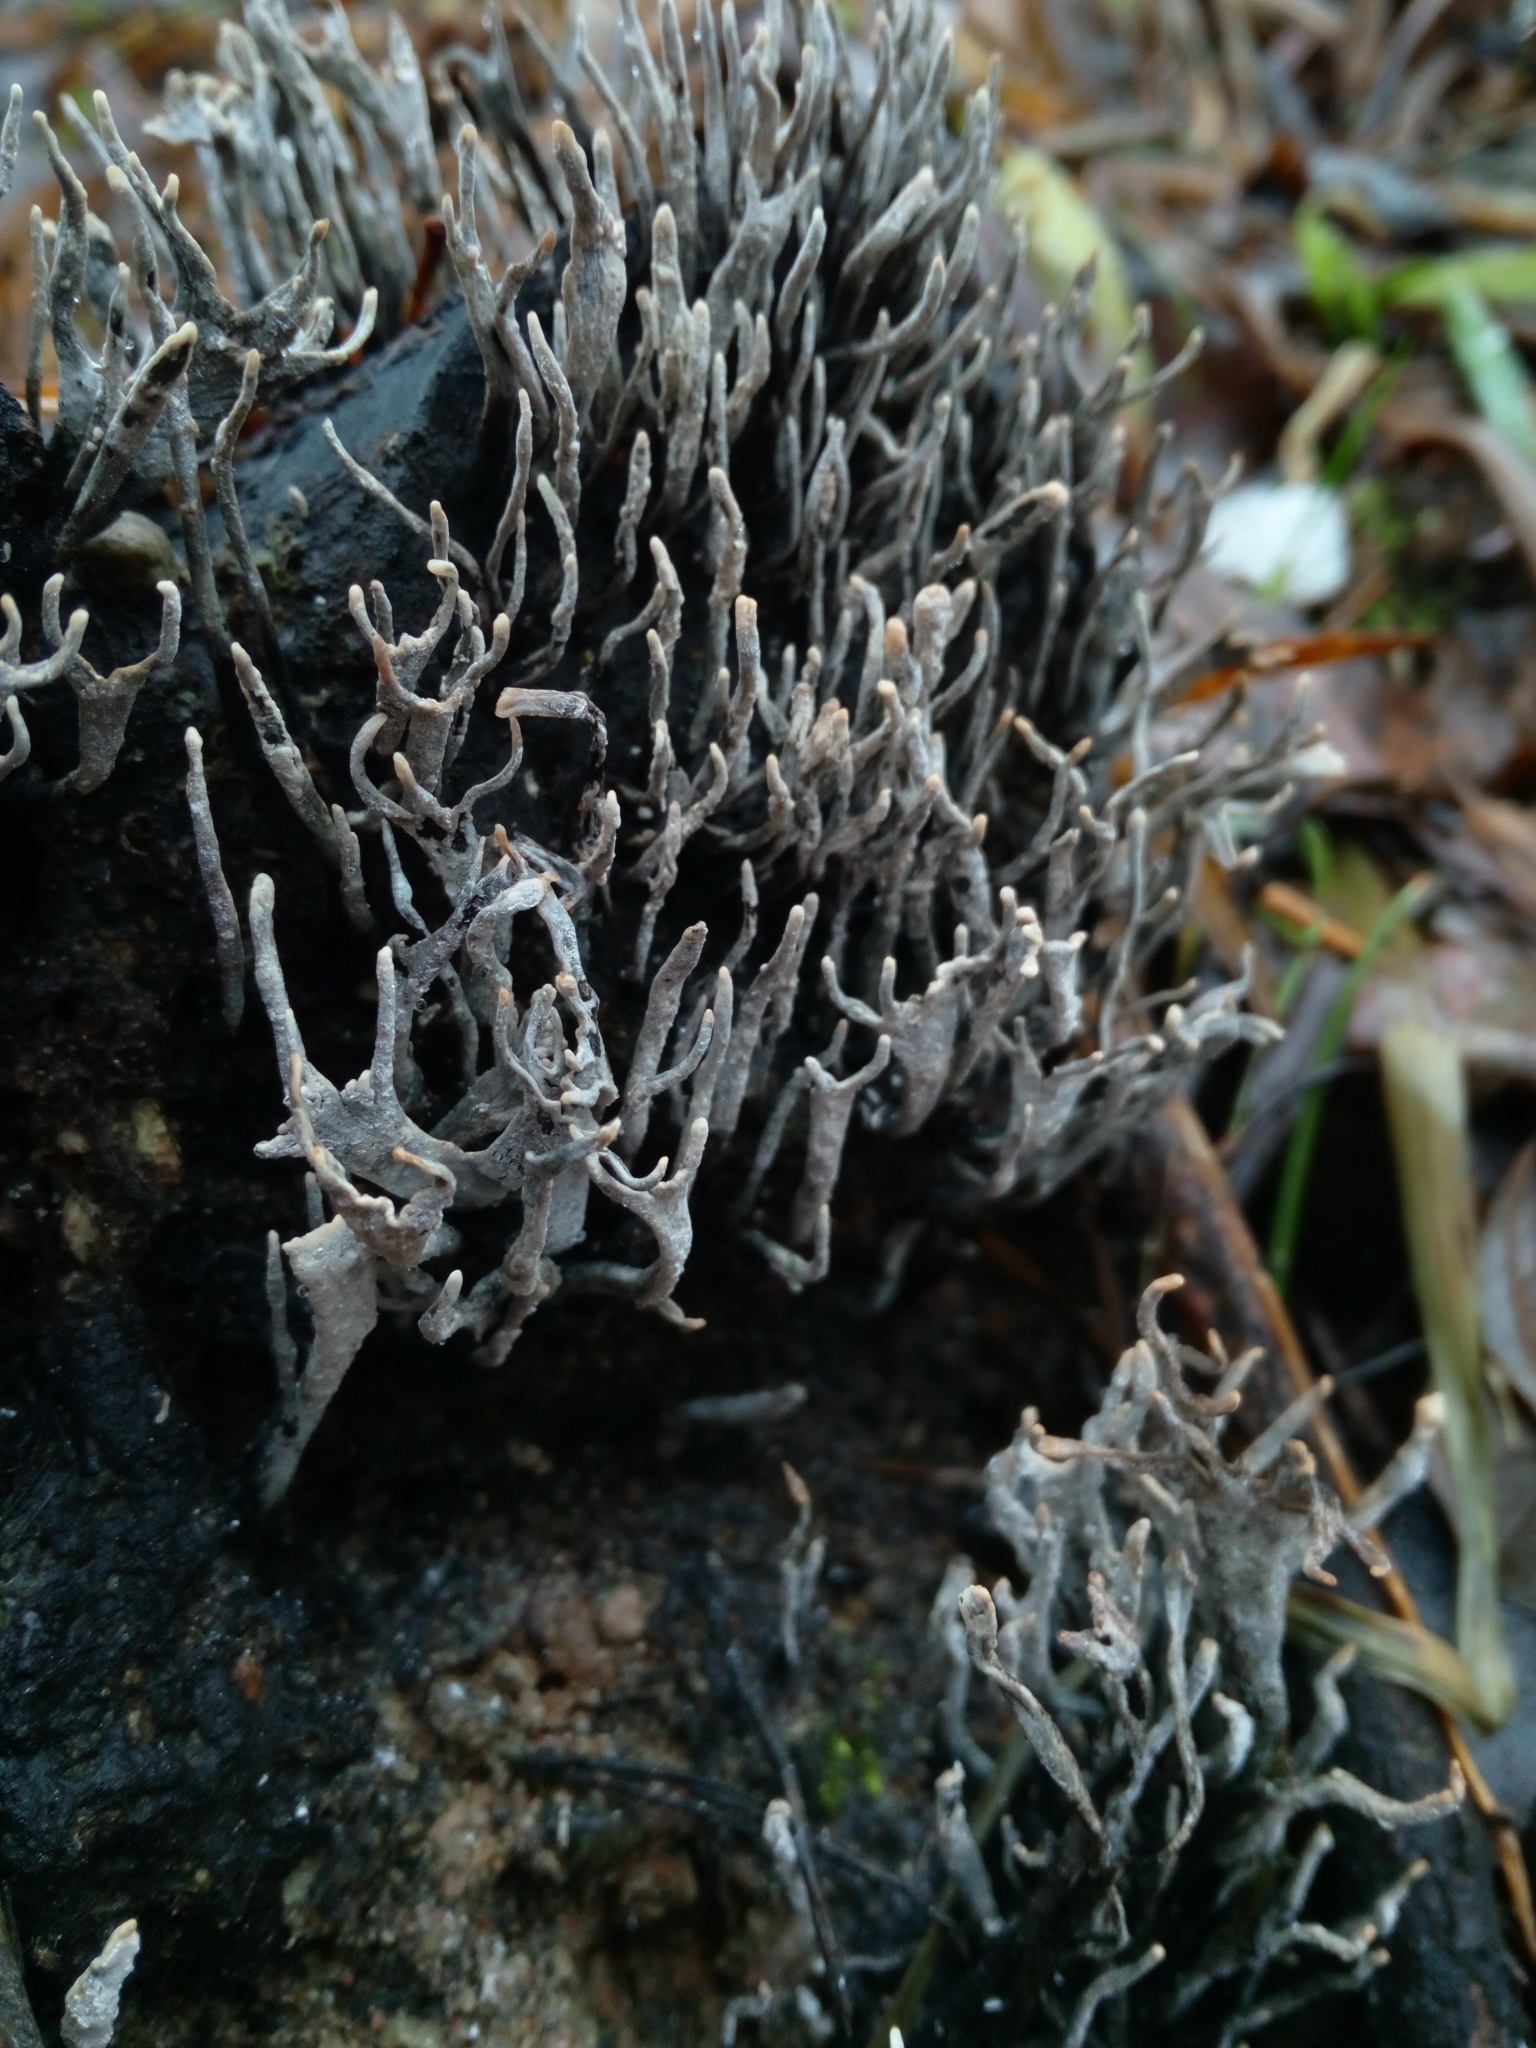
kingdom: Fungi
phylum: Ascomycota
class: Sordariomycetes
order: Xylariales
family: Xylariaceae
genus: Xylaria
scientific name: Xylaria hypoxylon
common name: Candle-snuff fungus
